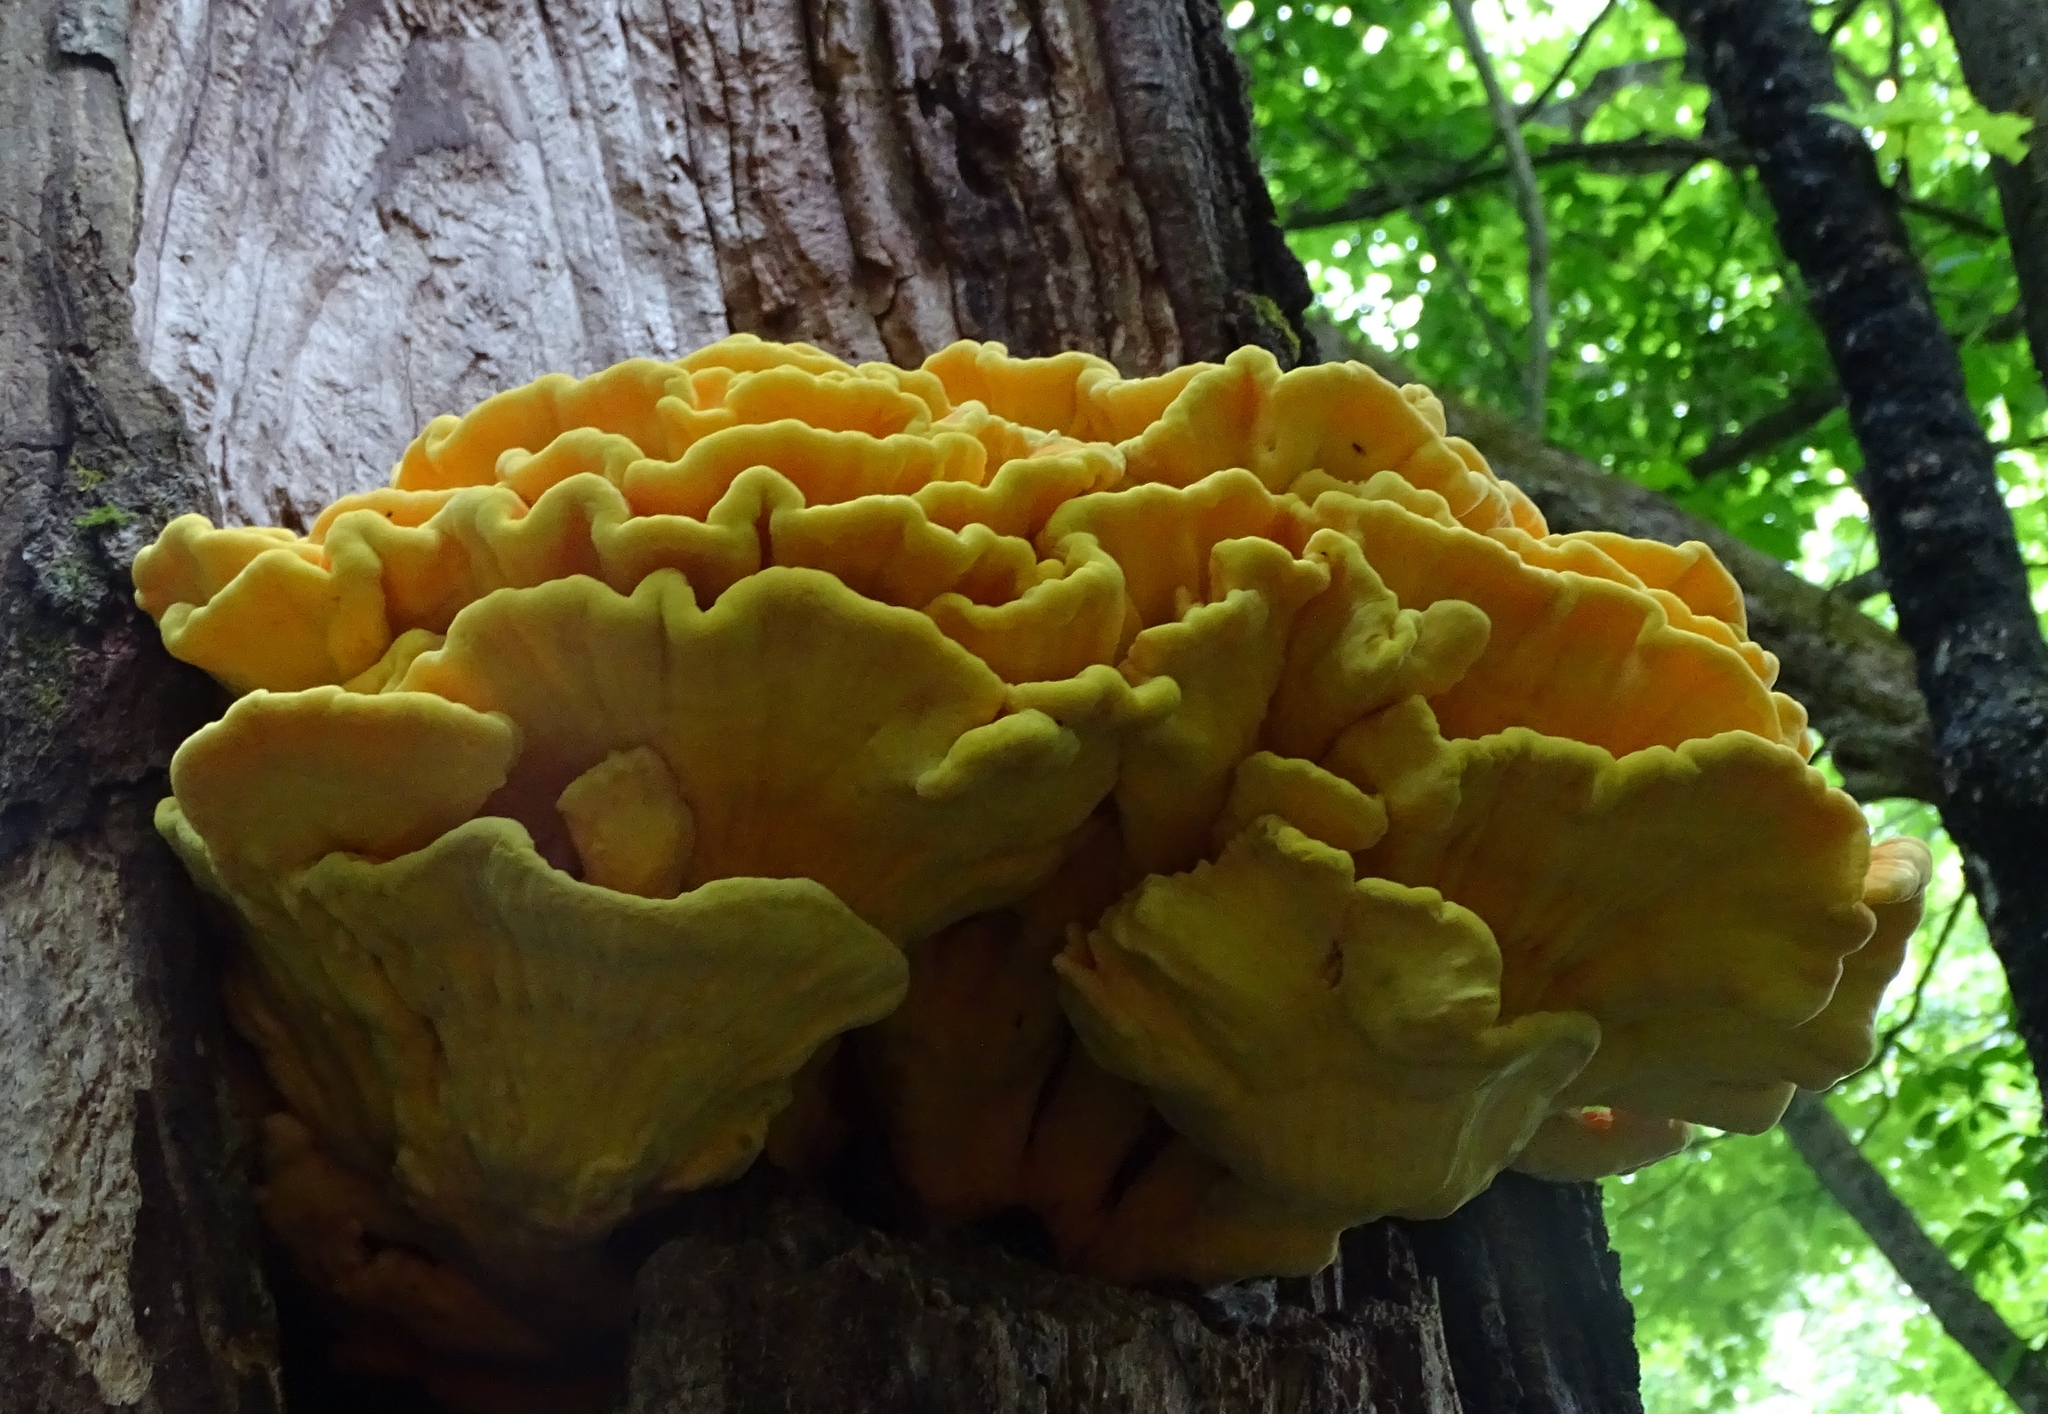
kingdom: Fungi
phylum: Basidiomycota
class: Agaricomycetes
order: Polyporales
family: Laetiporaceae
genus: Laetiporus
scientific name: Laetiporus sulphureus
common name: Chicken of the woods
